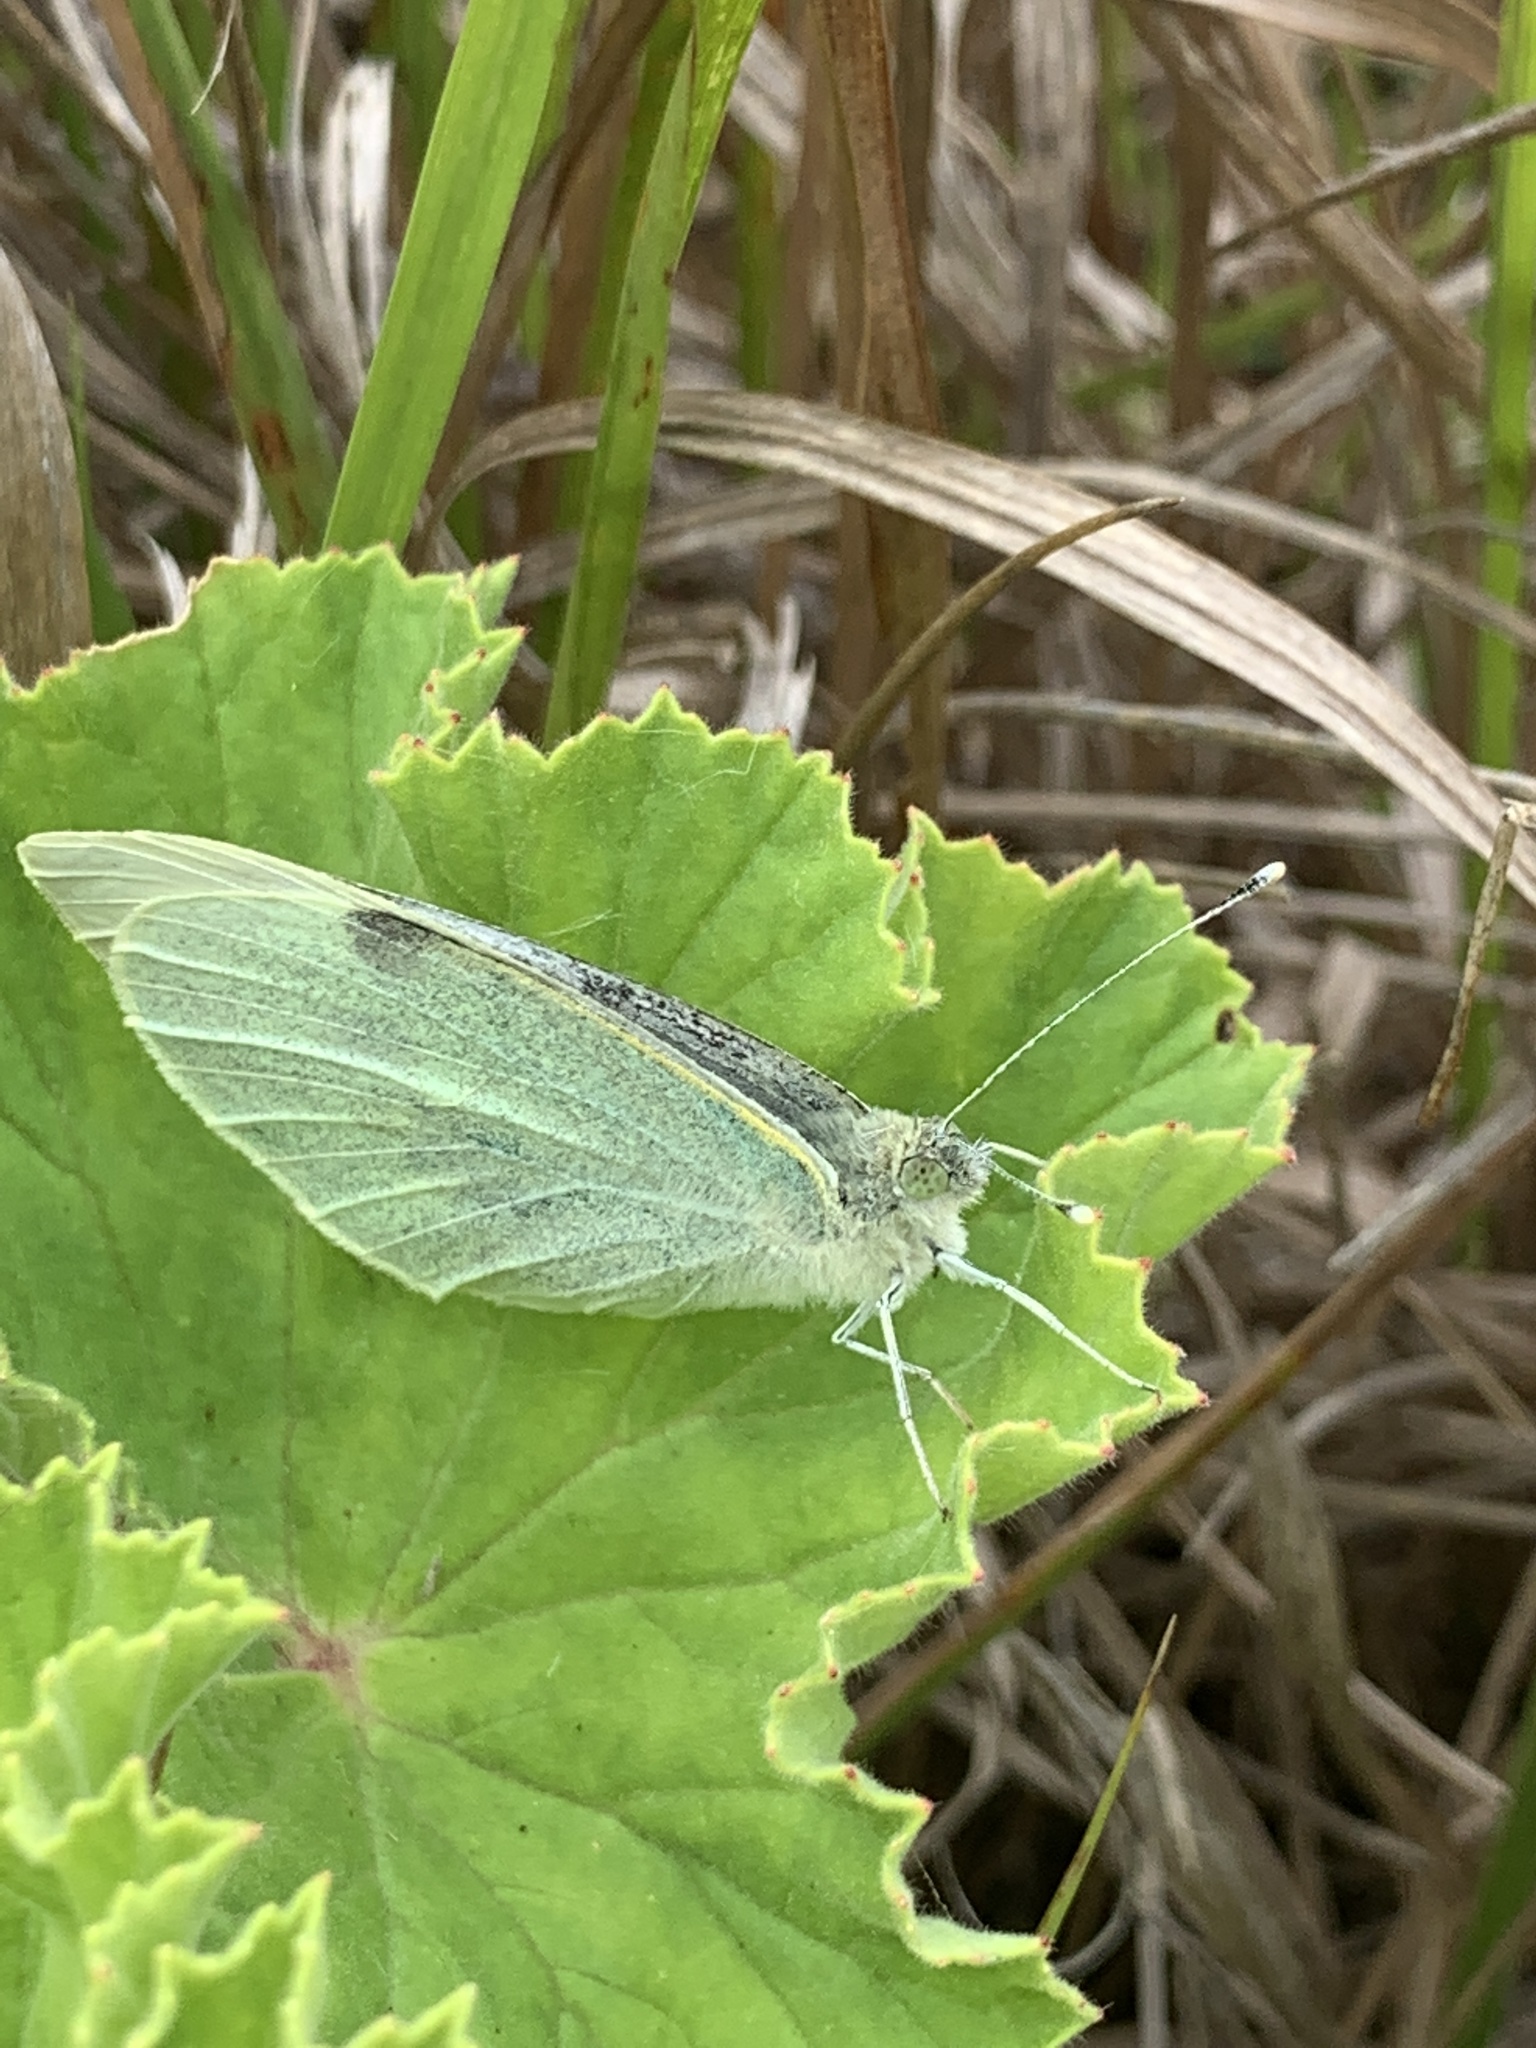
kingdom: Animalia
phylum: Arthropoda
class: Insecta
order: Lepidoptera
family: Pieridae
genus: Pieris
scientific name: Pieris brassicae
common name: Large white
